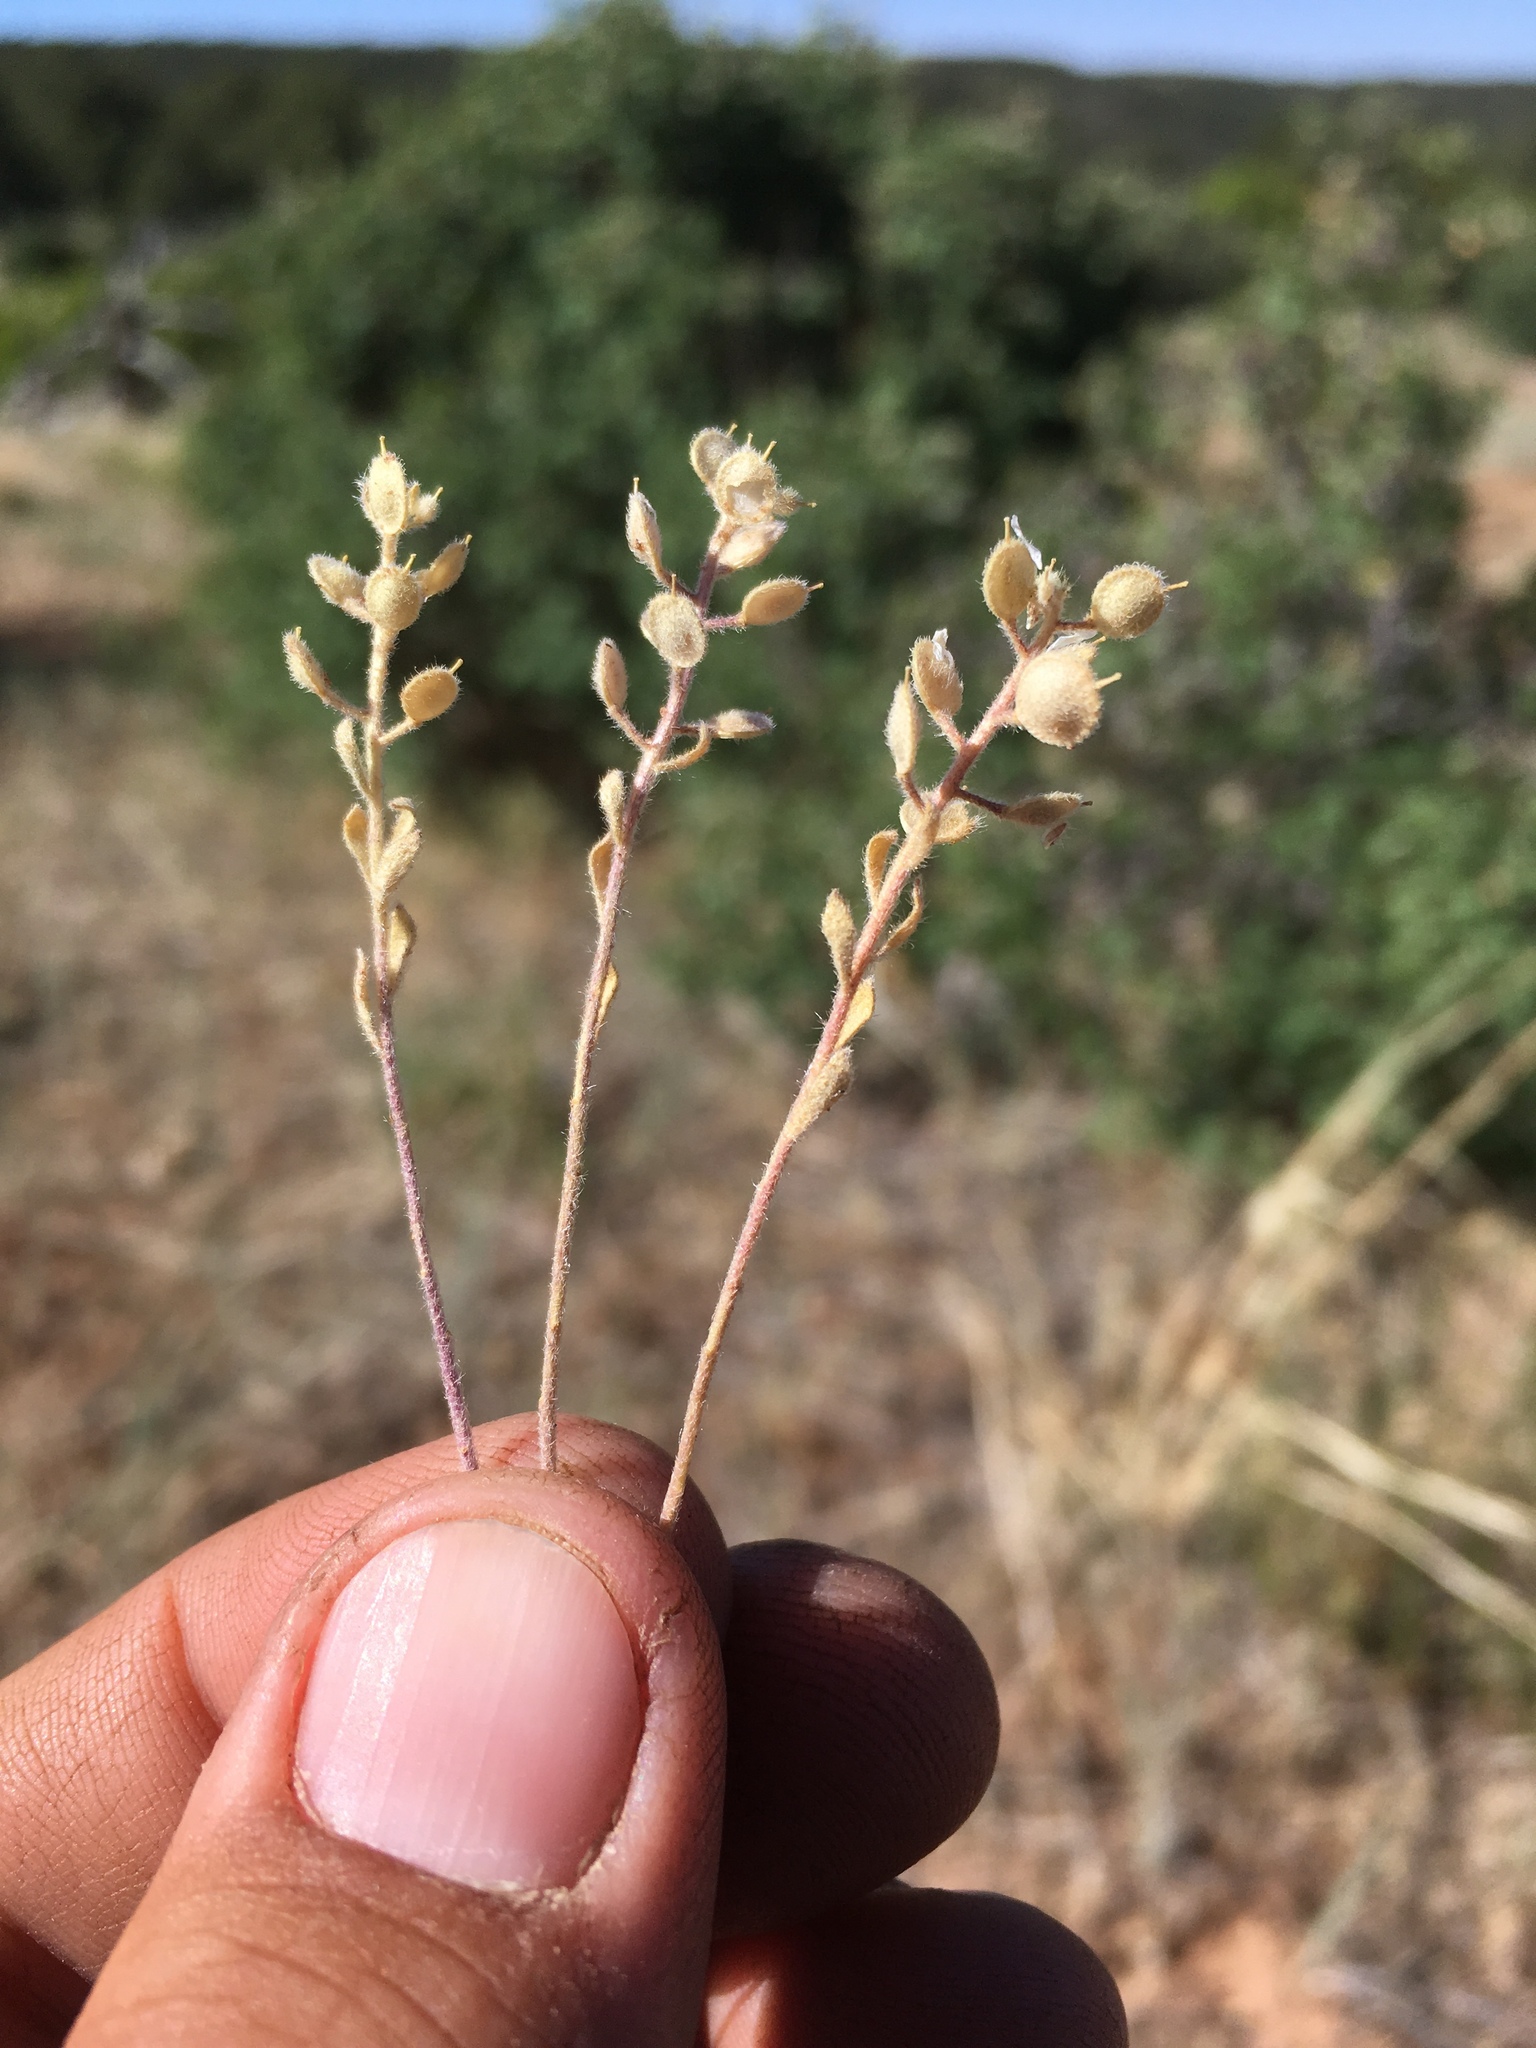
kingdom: Plantae
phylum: Tracheophyta
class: Magnoliopsida
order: Brassicales
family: Brassicaceae
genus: Alyssum
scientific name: Alyssum simplex
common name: Alyssum
